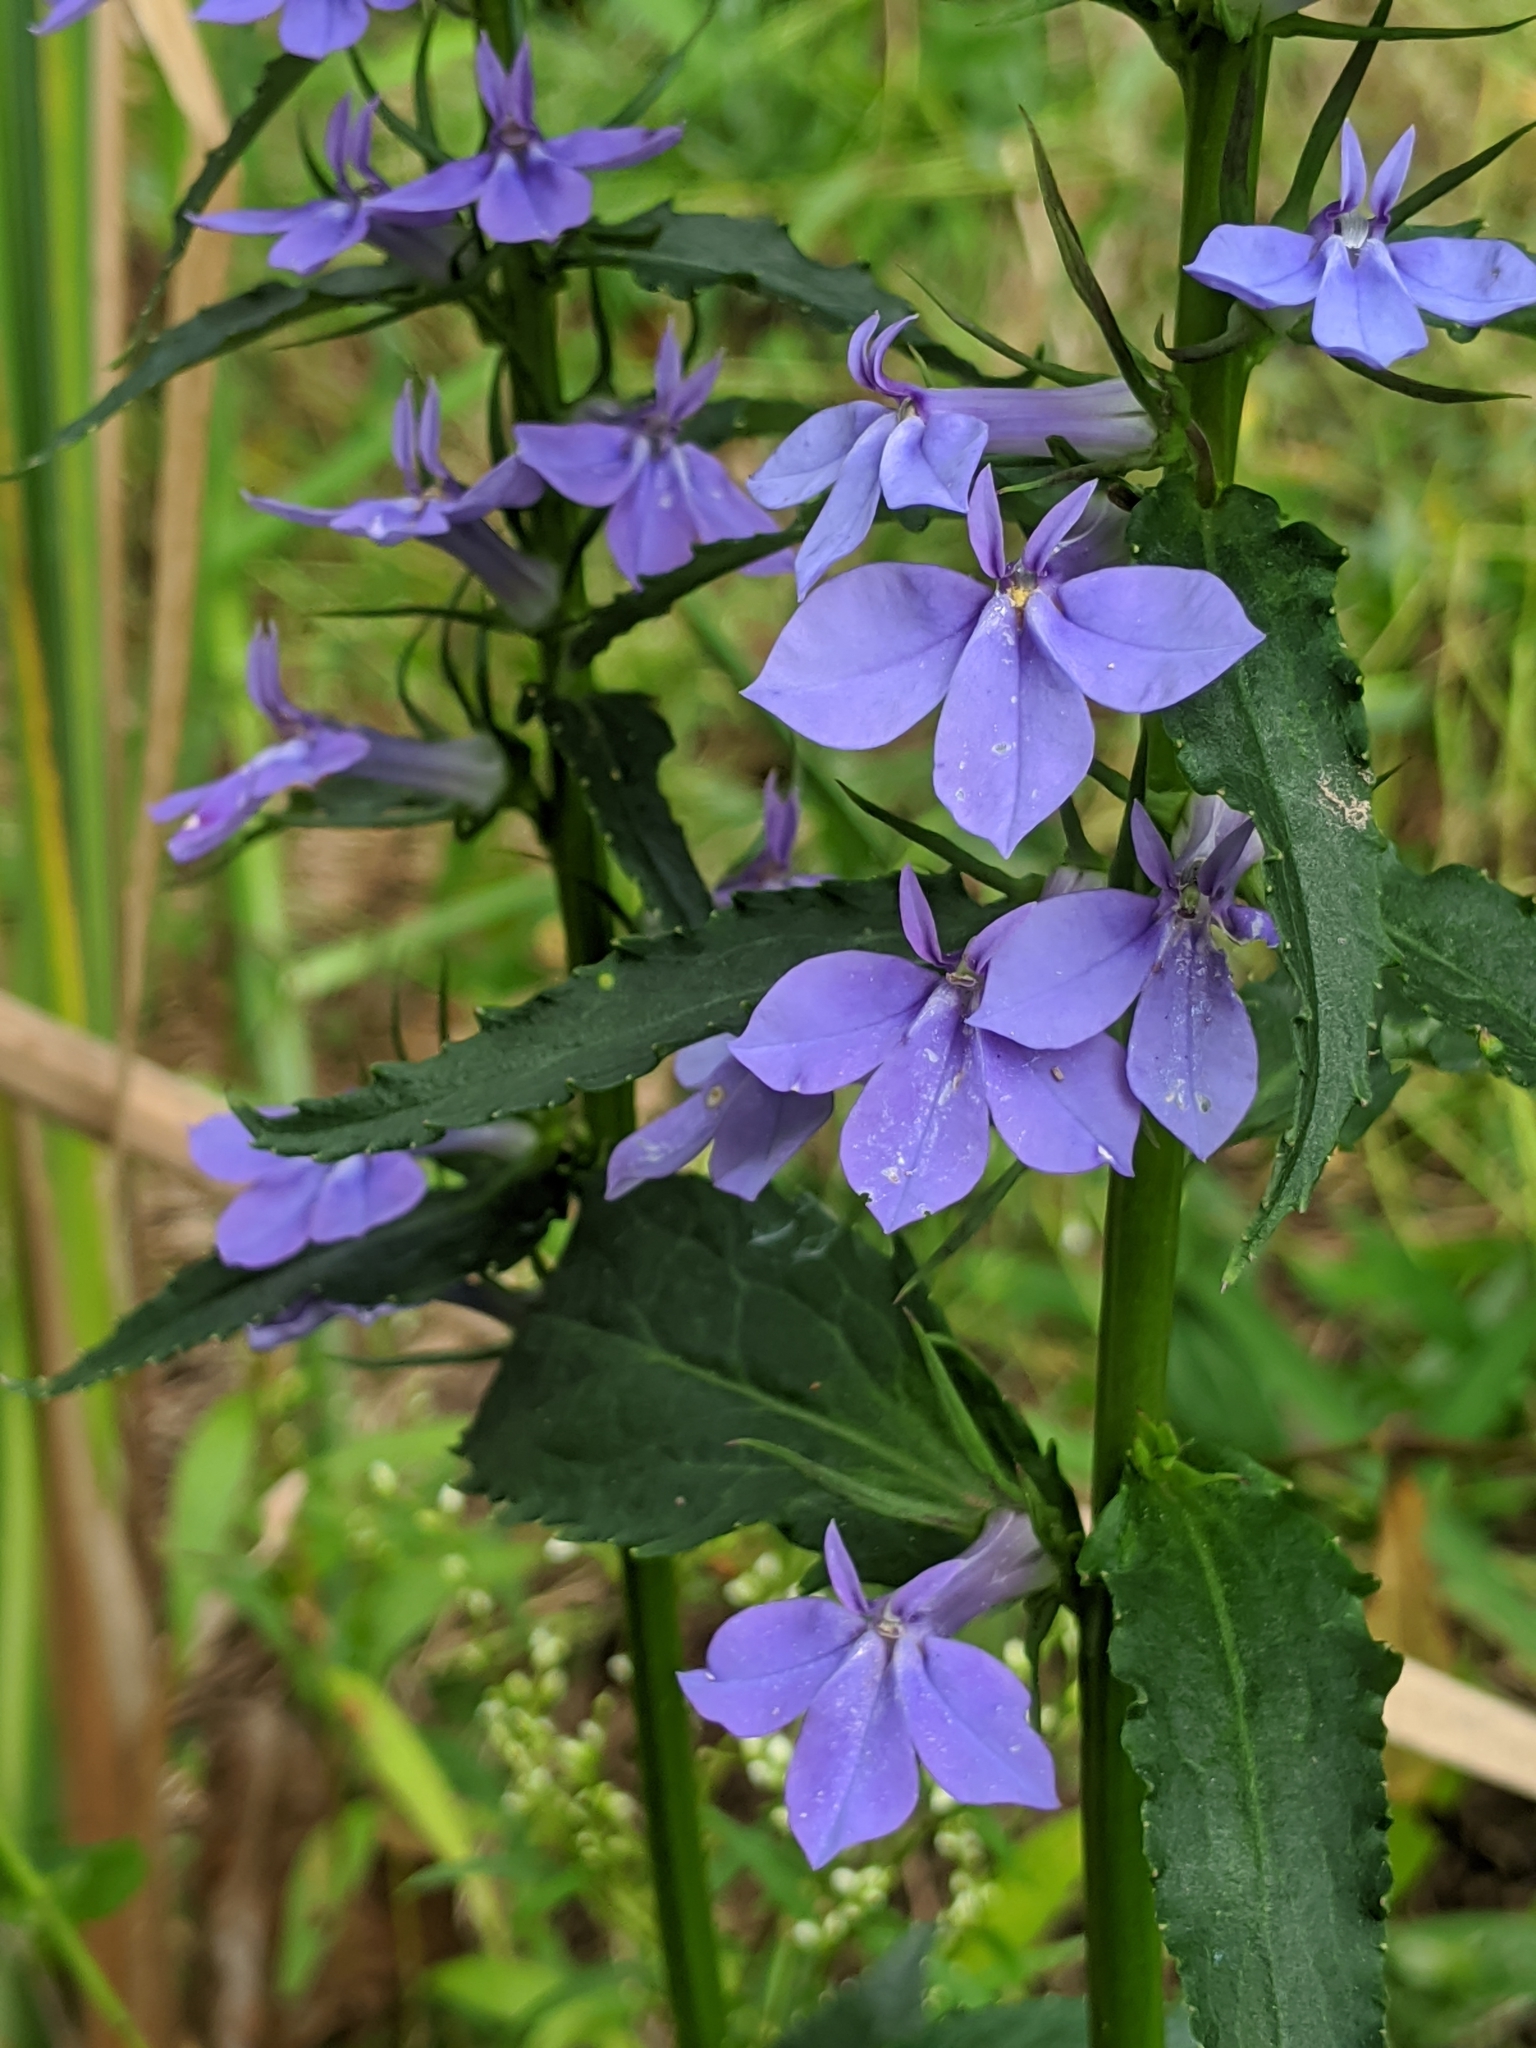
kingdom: Plantae
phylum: Tracheophyta
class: Magnoliopsida
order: Asterales
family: Campanulaceae
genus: Lobelia
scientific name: Lobelia siphilitica
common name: Great lobelia
